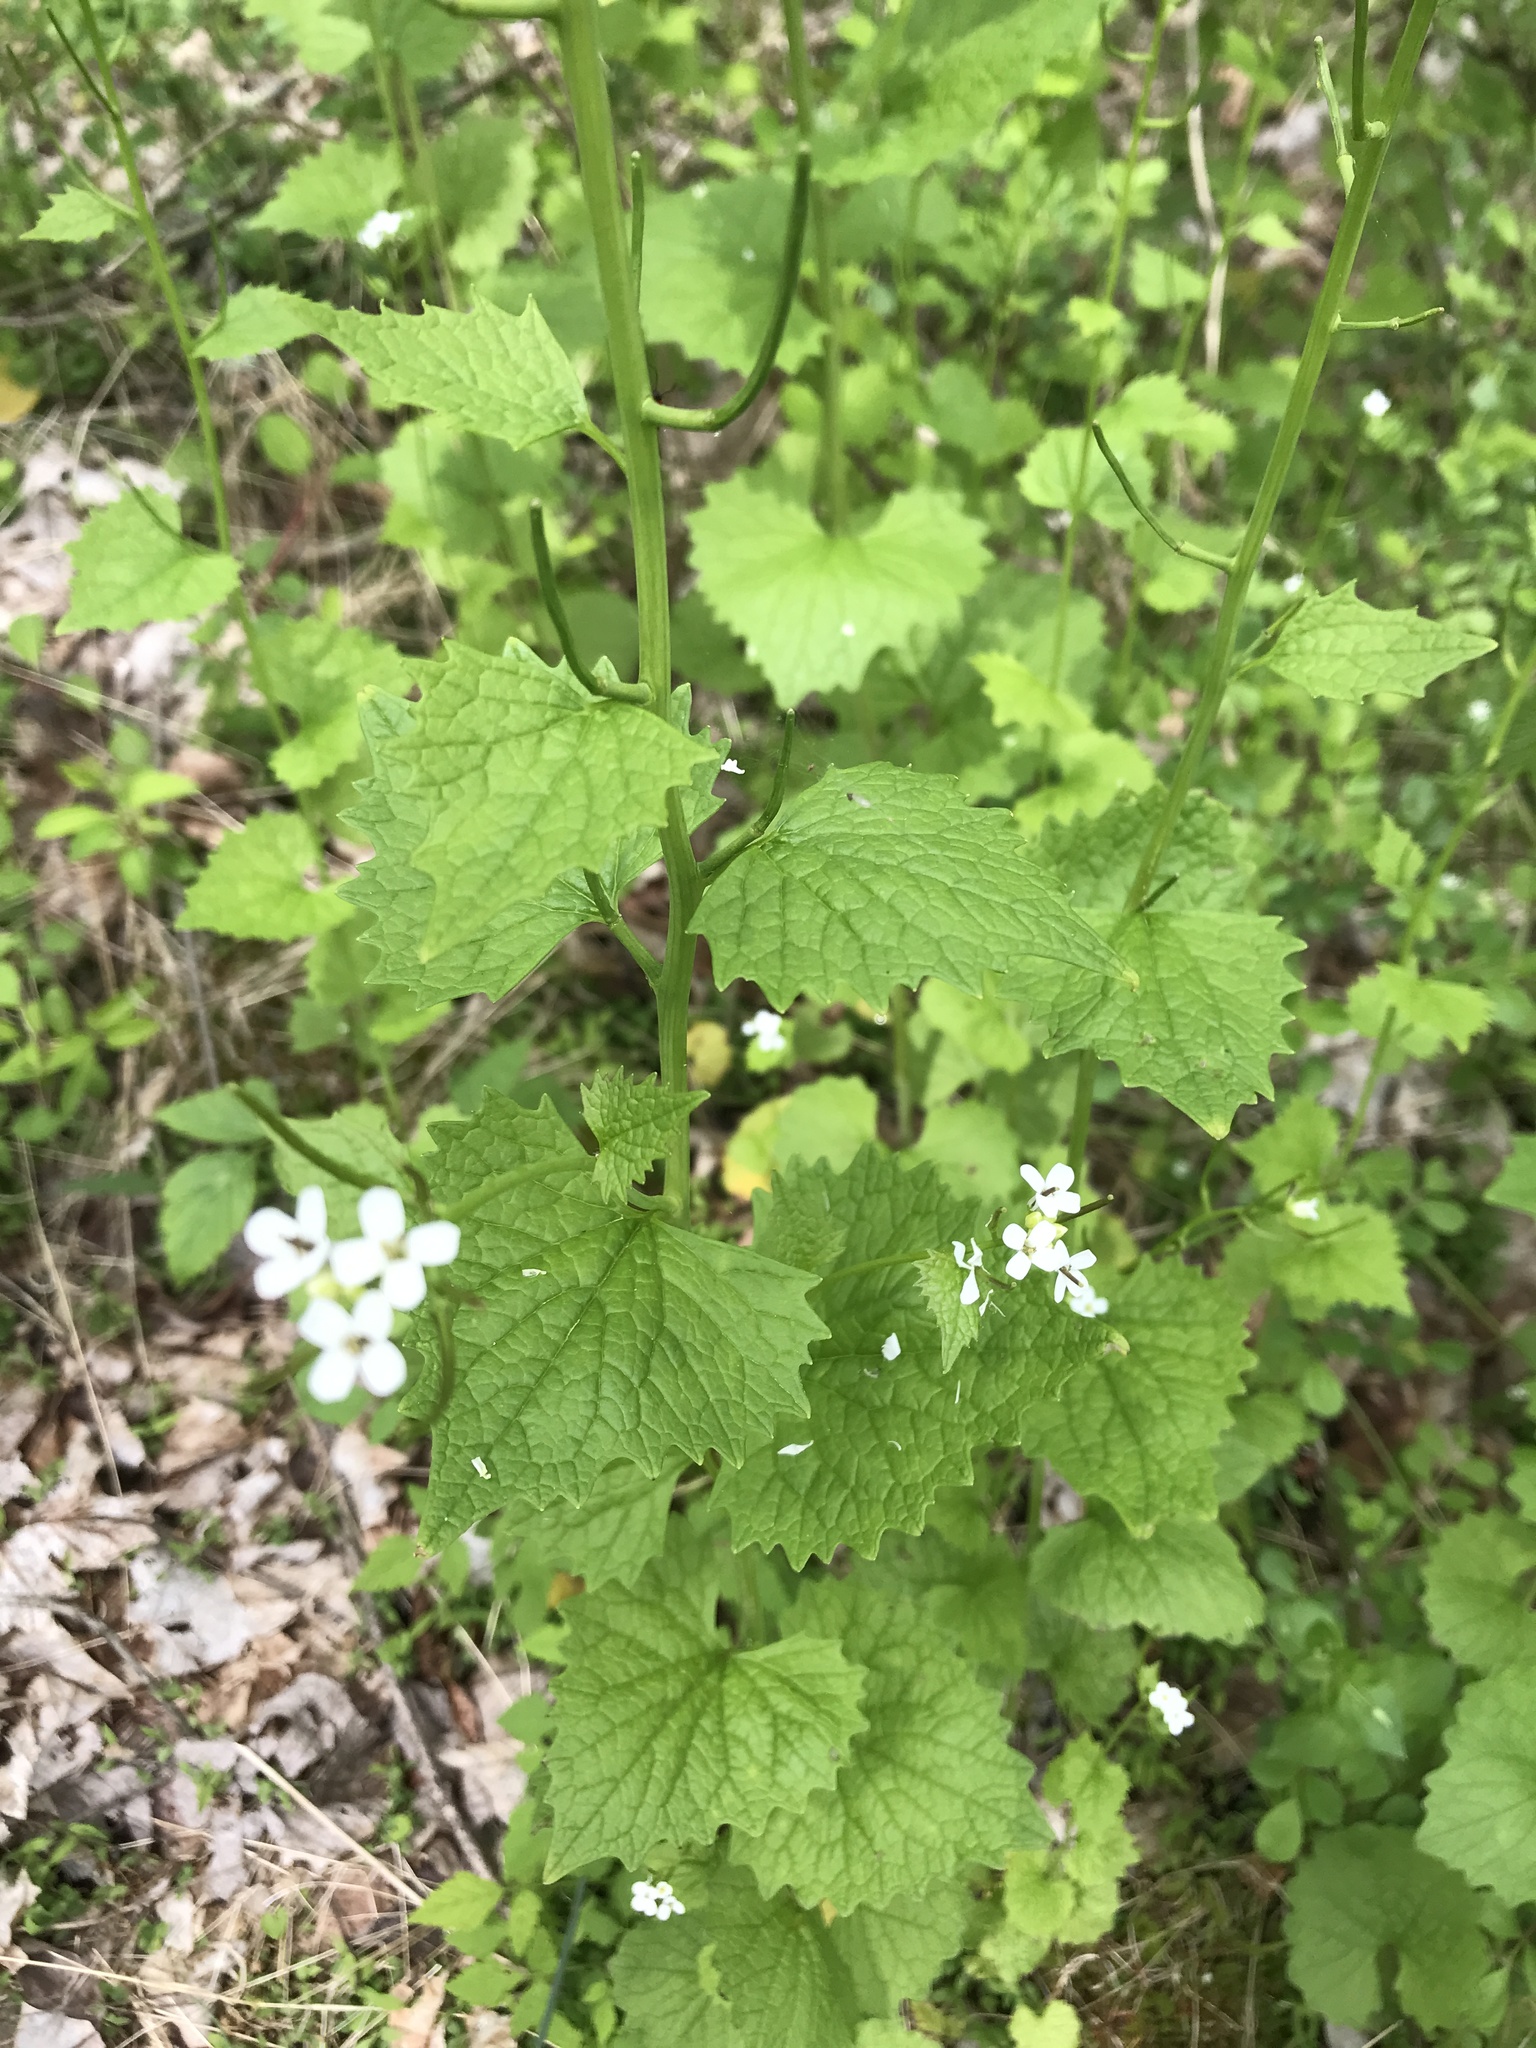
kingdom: Plantae
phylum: Tracheophyta
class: Magnoliopsida
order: Brassicales
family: Brassicaceae
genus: Alliaria
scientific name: Alliaria petiolata
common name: Garlic mustard
